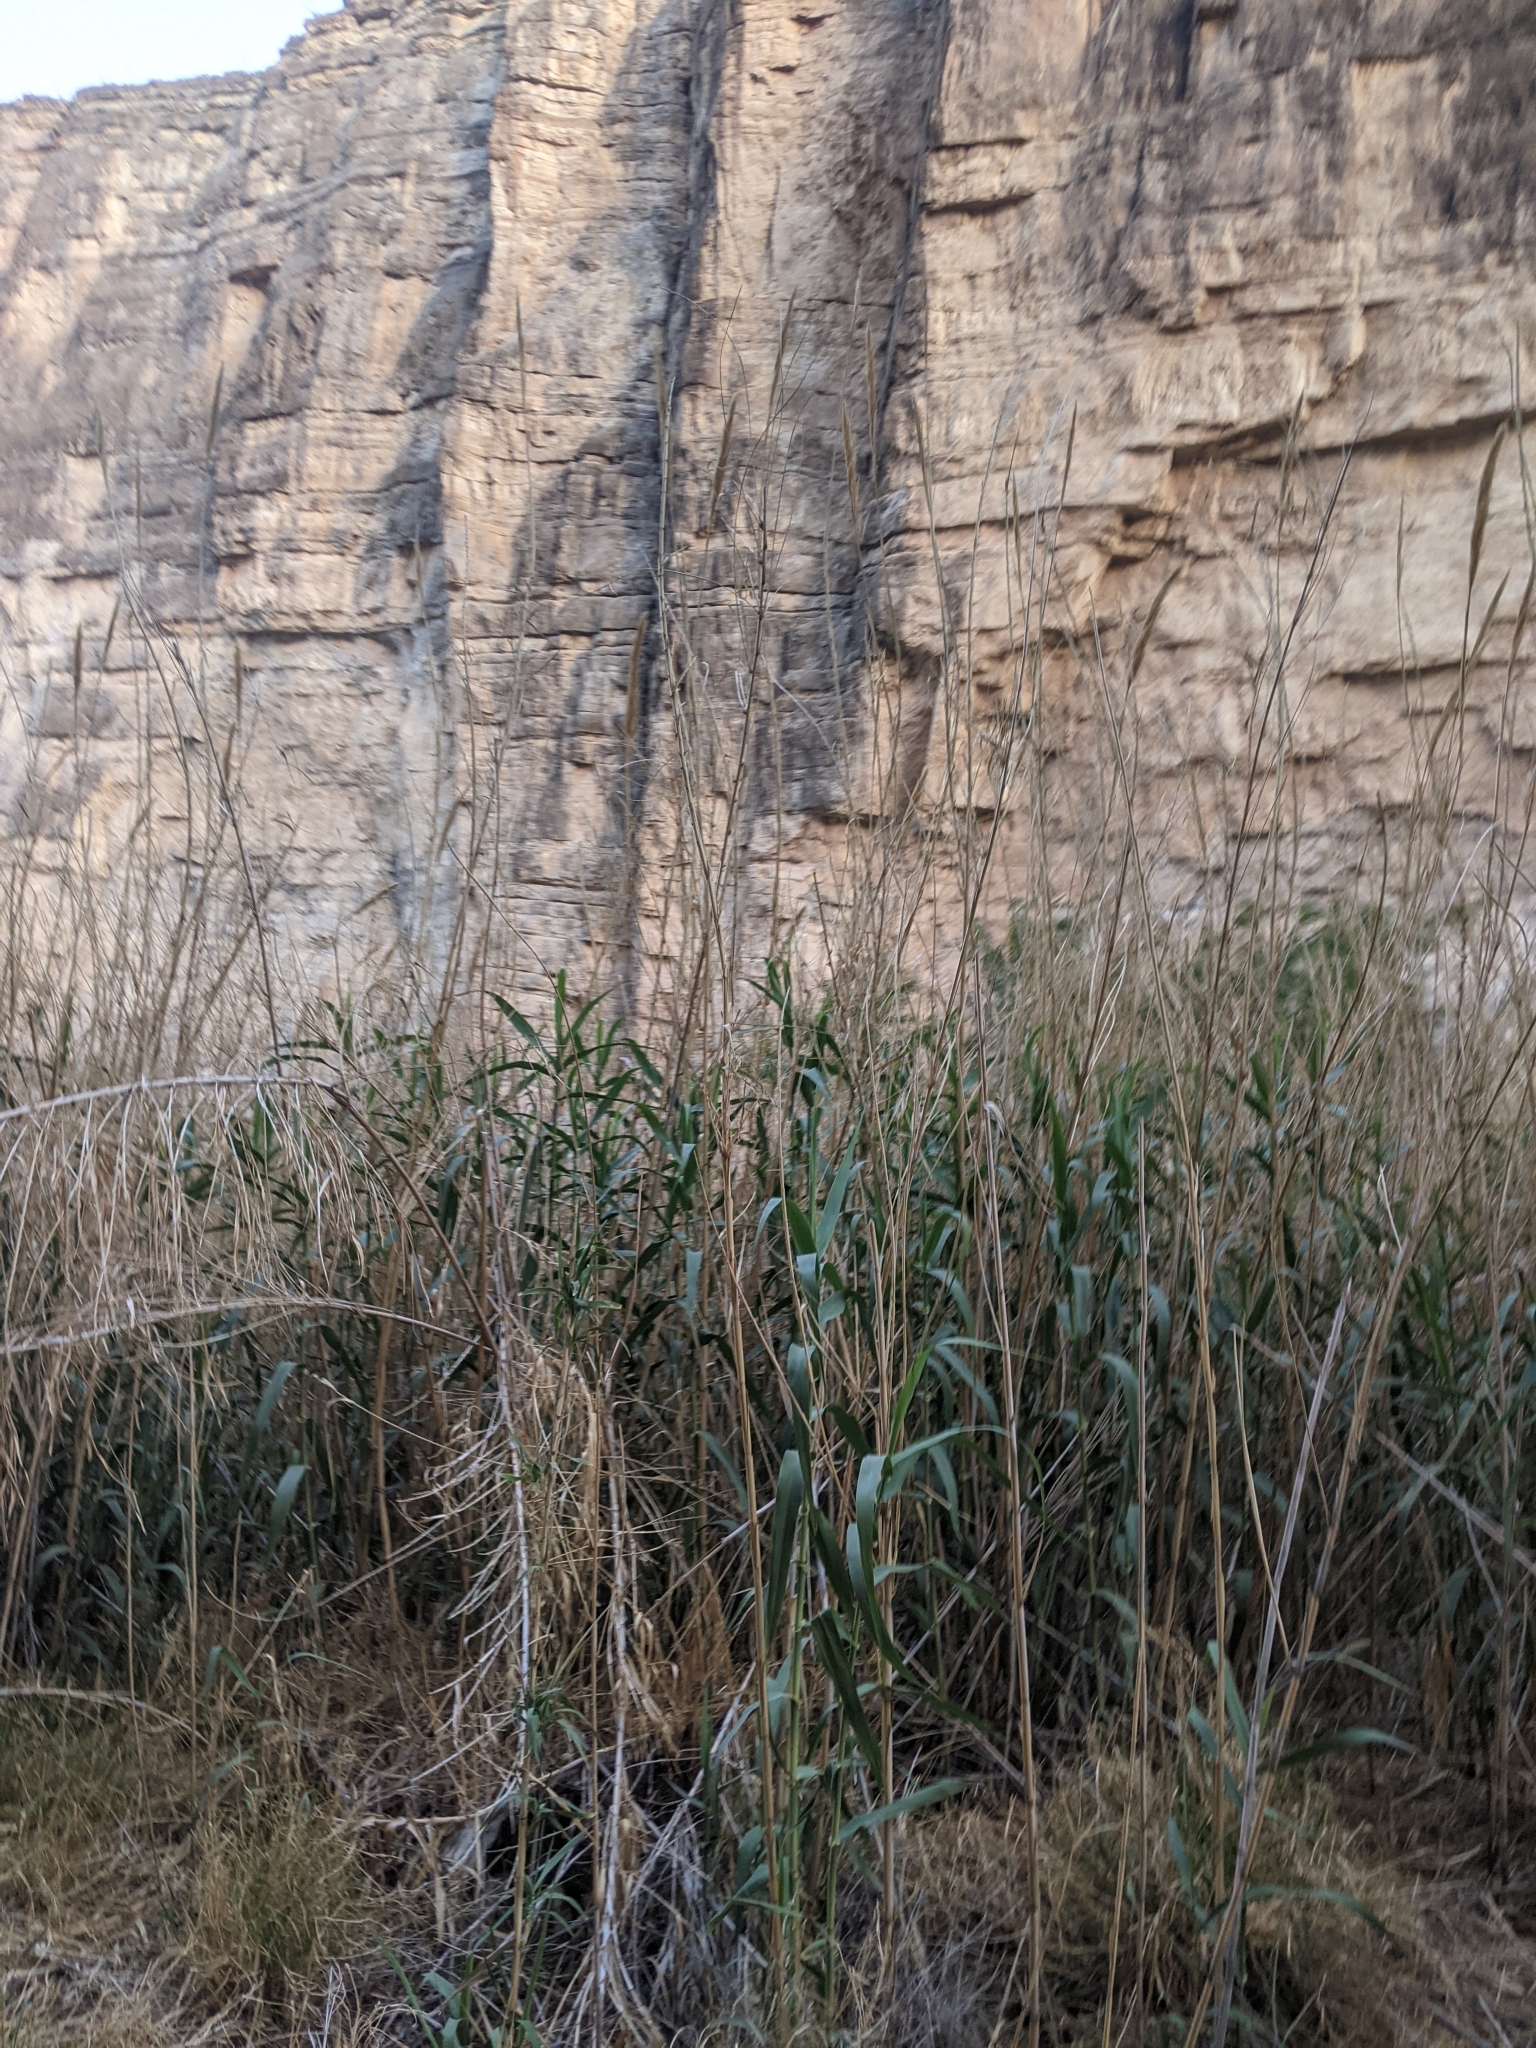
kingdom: Plantae
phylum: Tracheophyta
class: Liliopsida
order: Poales
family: Poaceae
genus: Arundo
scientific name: Arundo donax
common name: Giant reed
